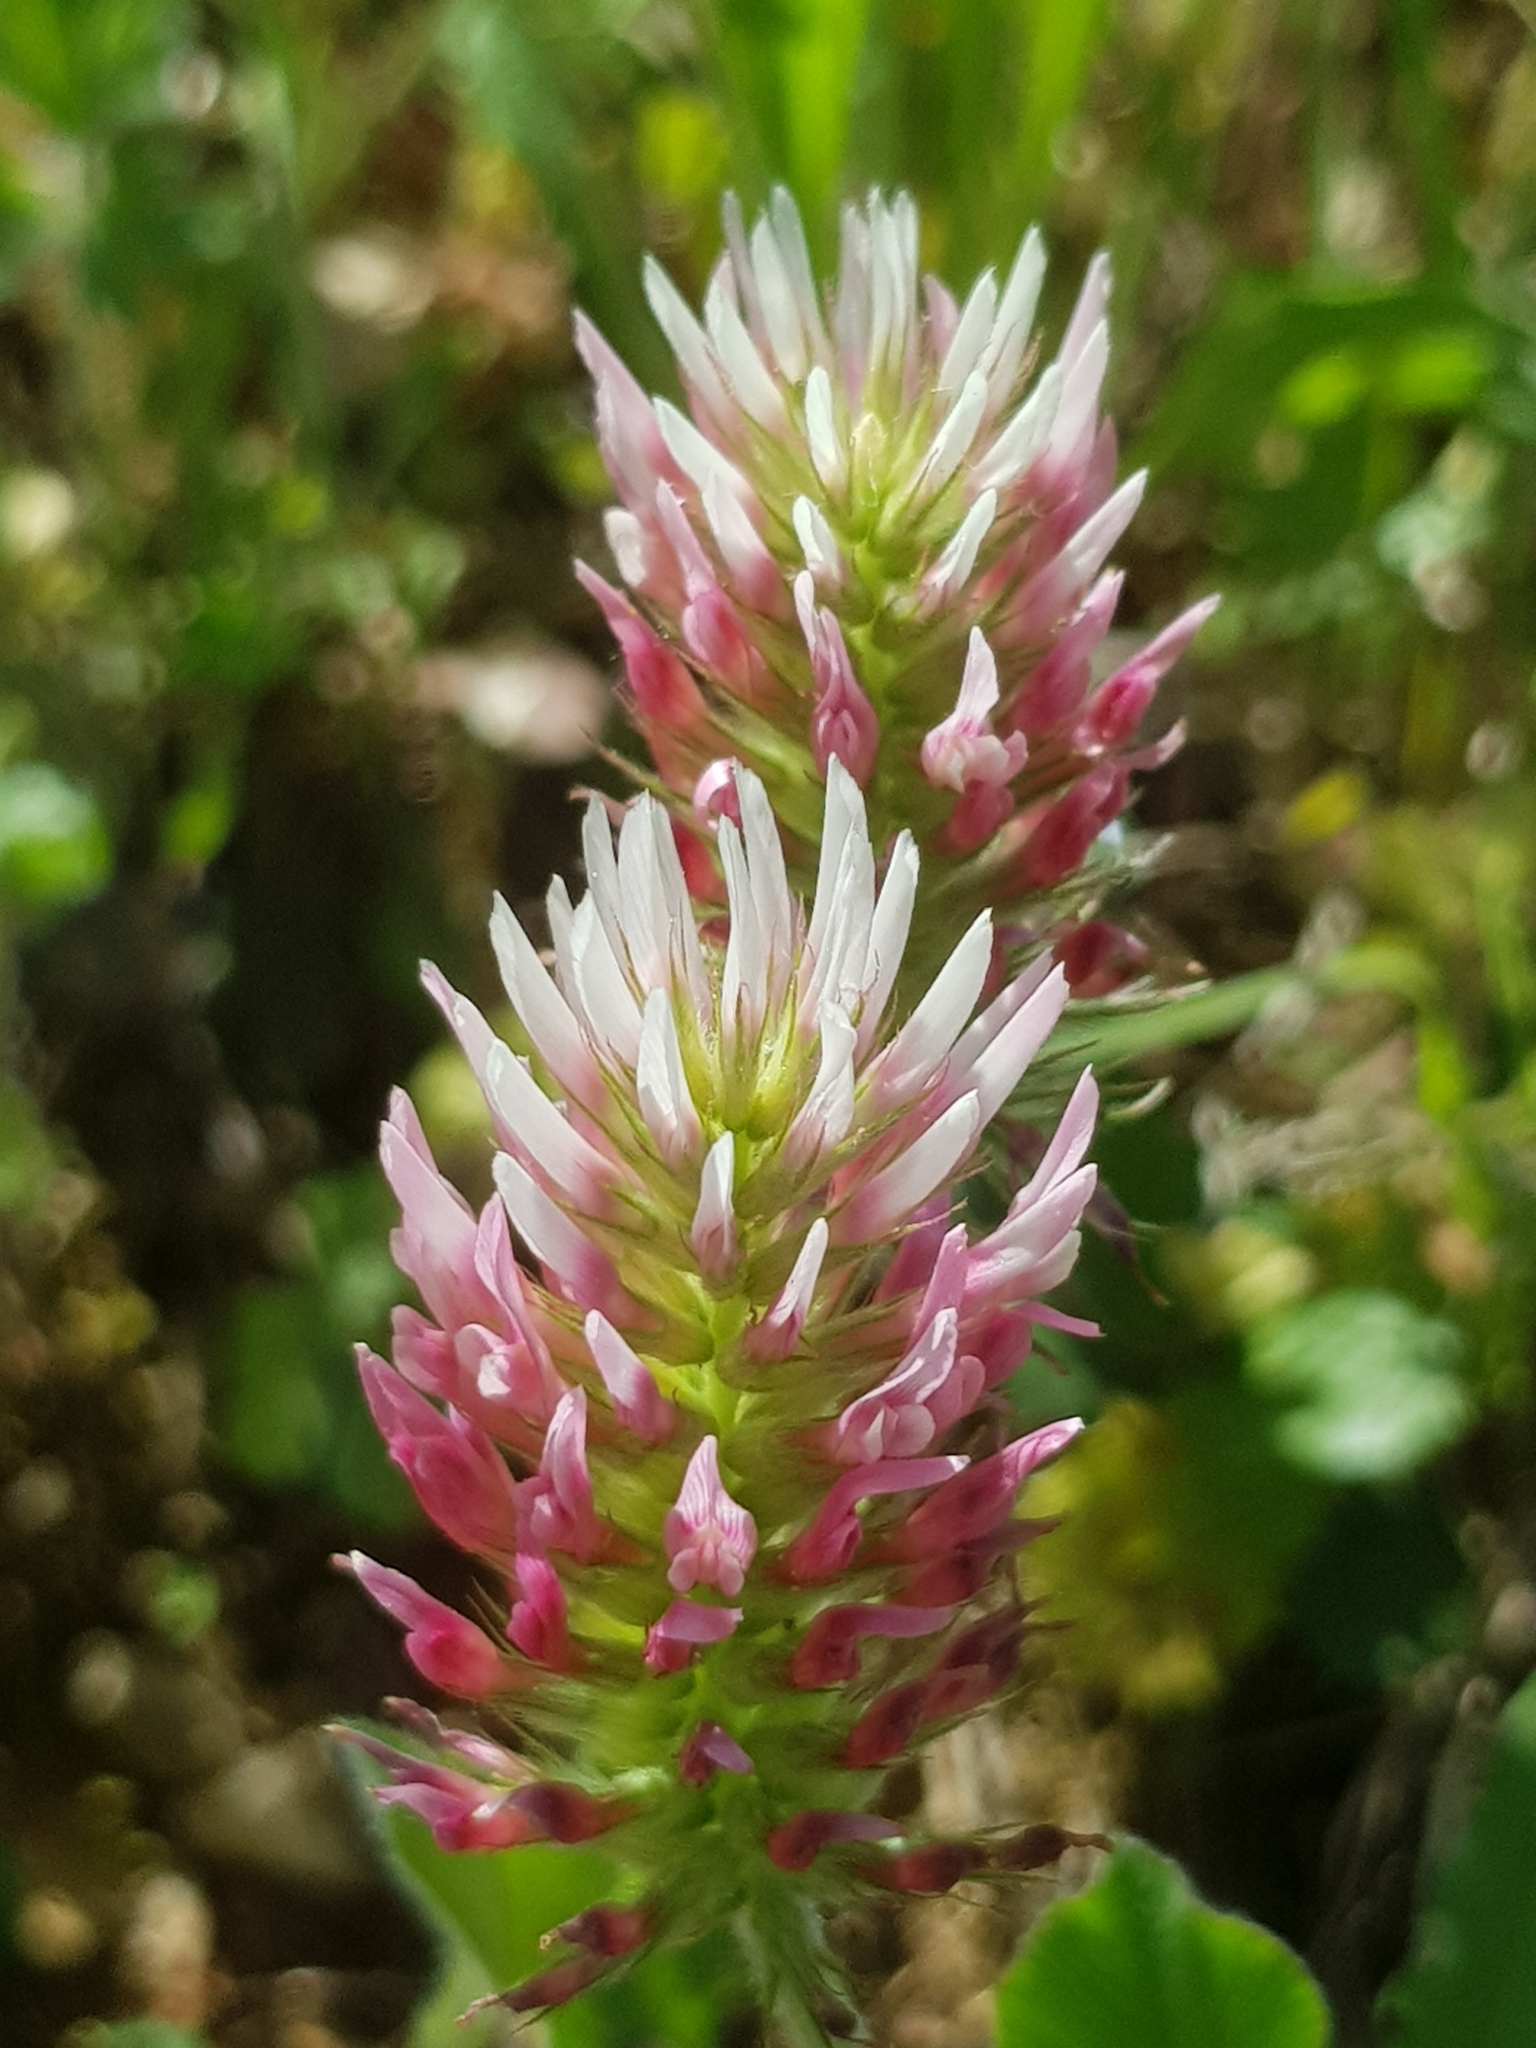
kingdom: Plantae
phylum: Tracheophyta
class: Magnoliopsida
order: Fabales
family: Fabaceae
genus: Trifolium
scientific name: Trifolium incarnatum
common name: Crimson clover
